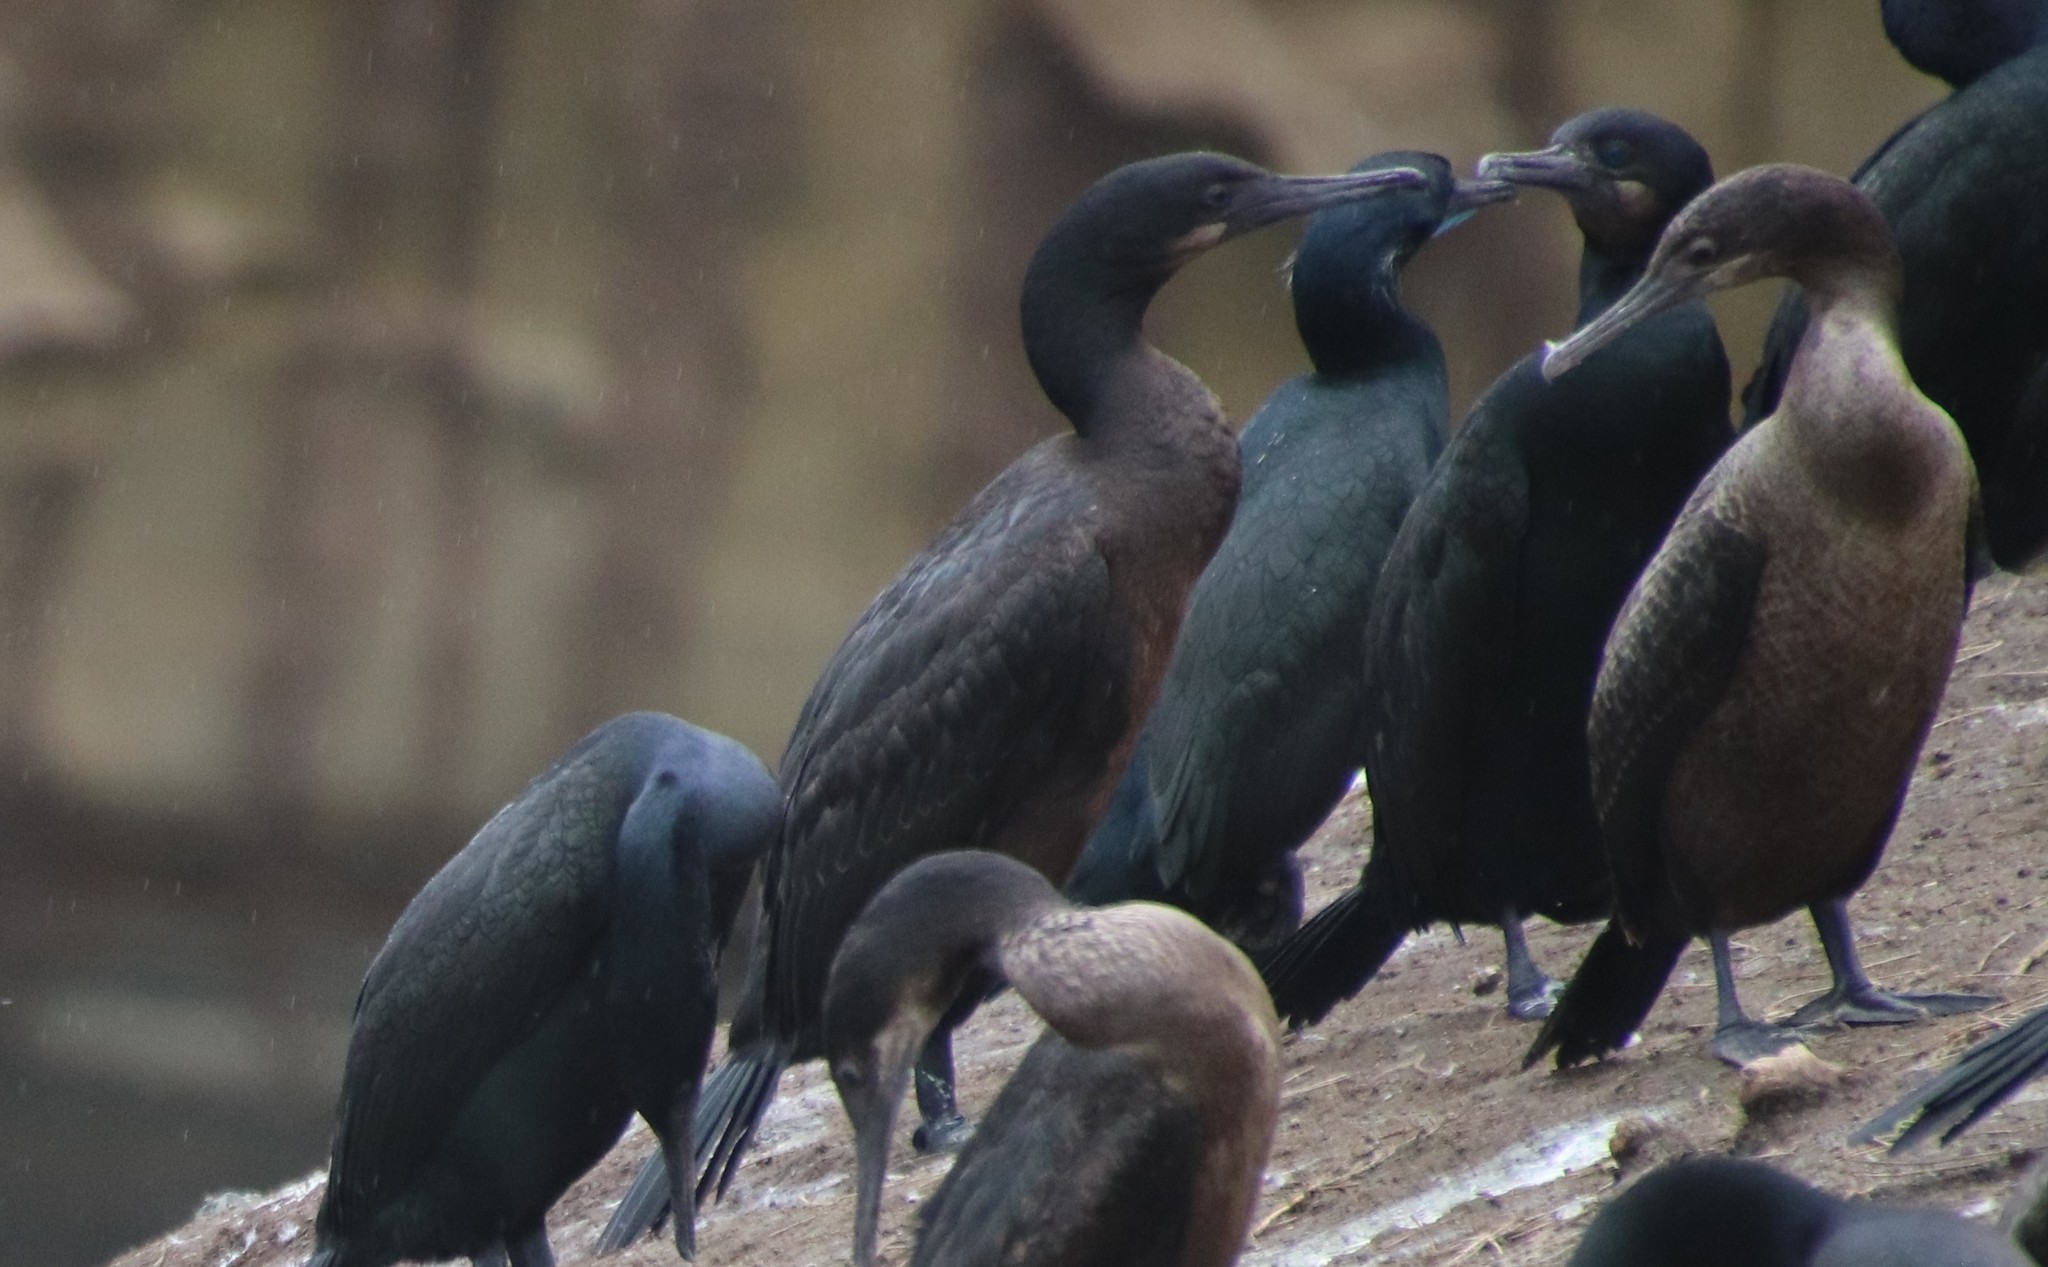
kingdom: Animalia
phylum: Chordata
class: Aves
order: Suliformes
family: Phalacrocoracidae
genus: Urile
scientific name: Urile penicillatus
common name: Brandt's cormorant
